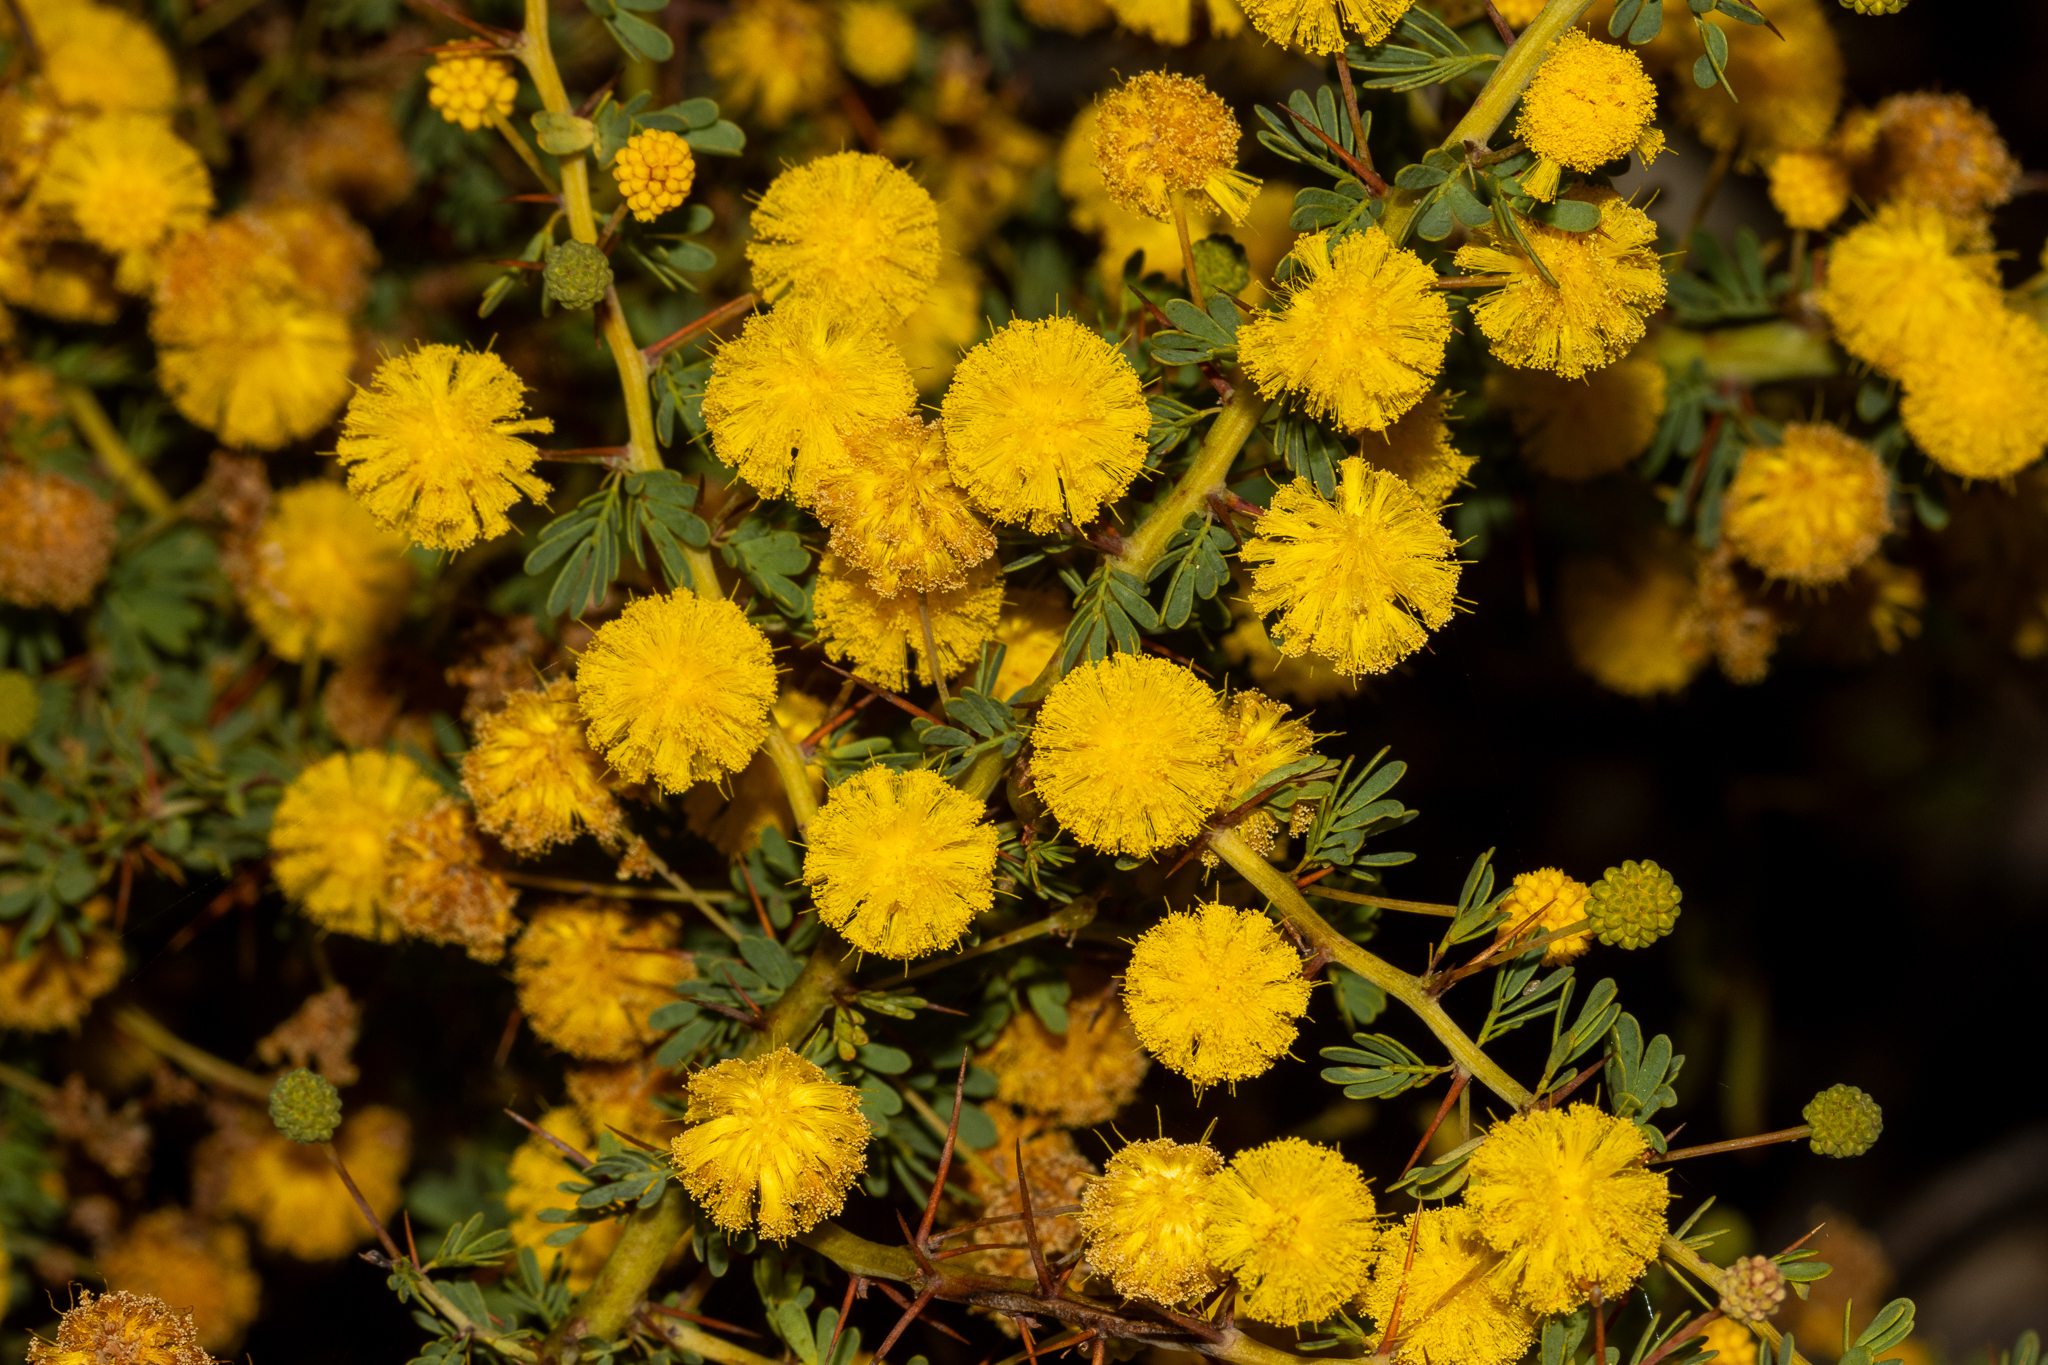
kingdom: Plantae
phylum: Tracheophyta
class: Magnoliopsida
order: Fabales
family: Fabaceae
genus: Acacia
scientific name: Acacia pulchella
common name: Prickly moses
